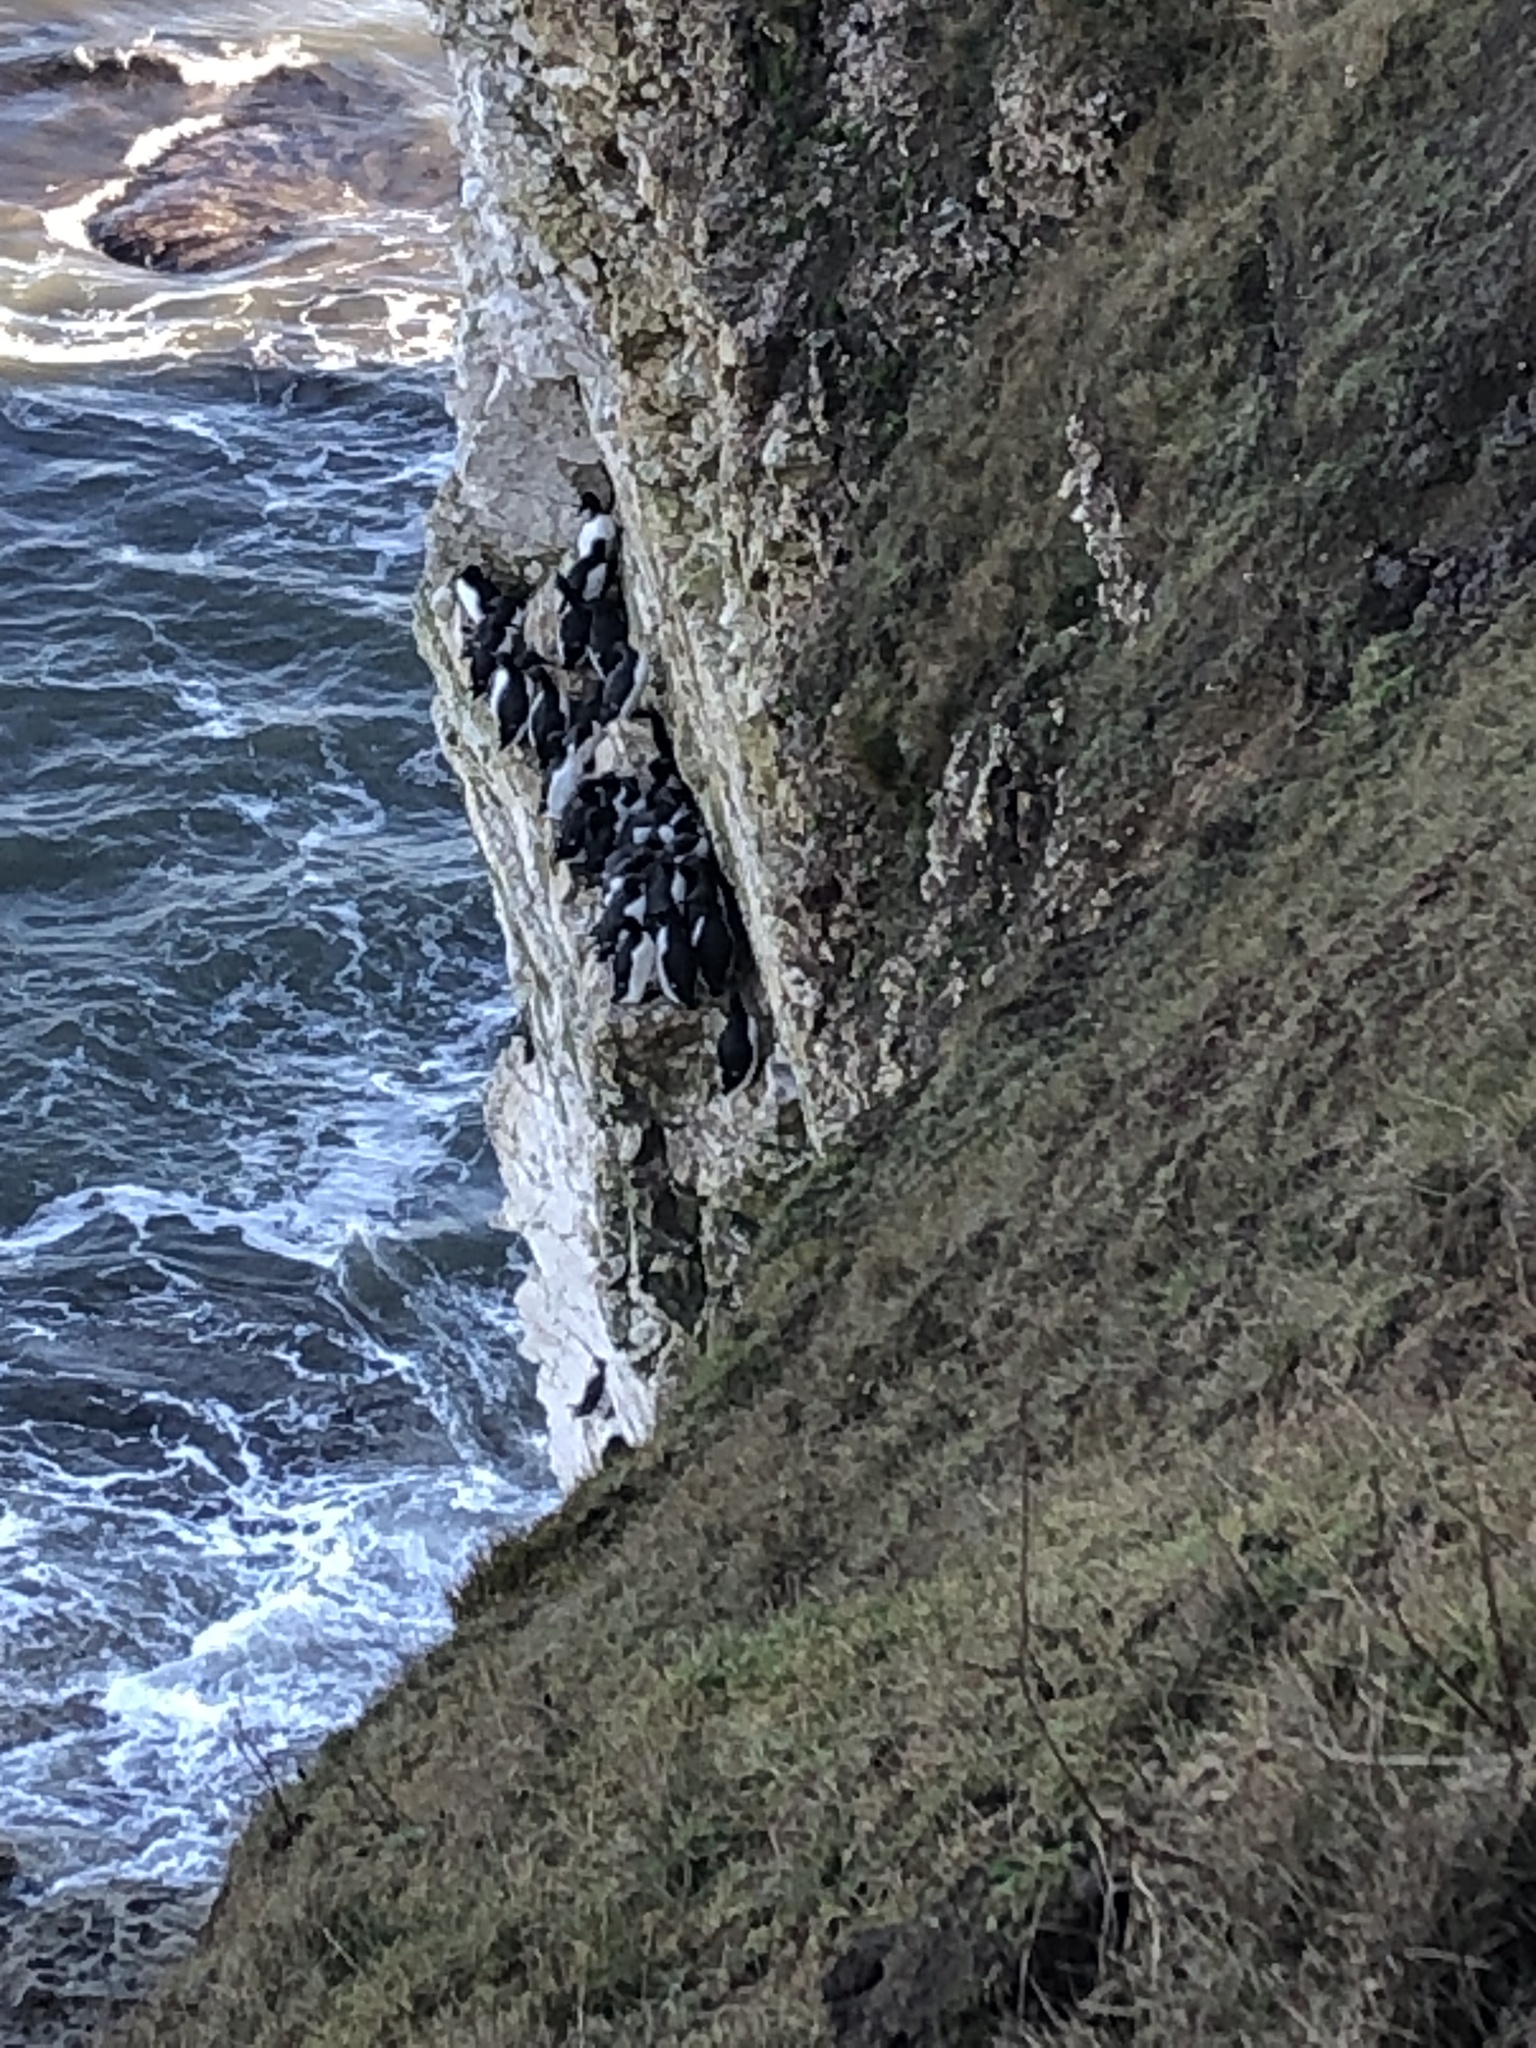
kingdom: Animalia
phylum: Chordata
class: Aves
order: Charadriiformes
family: Alcidae
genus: Uria
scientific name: Uria aalge
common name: Common murre
